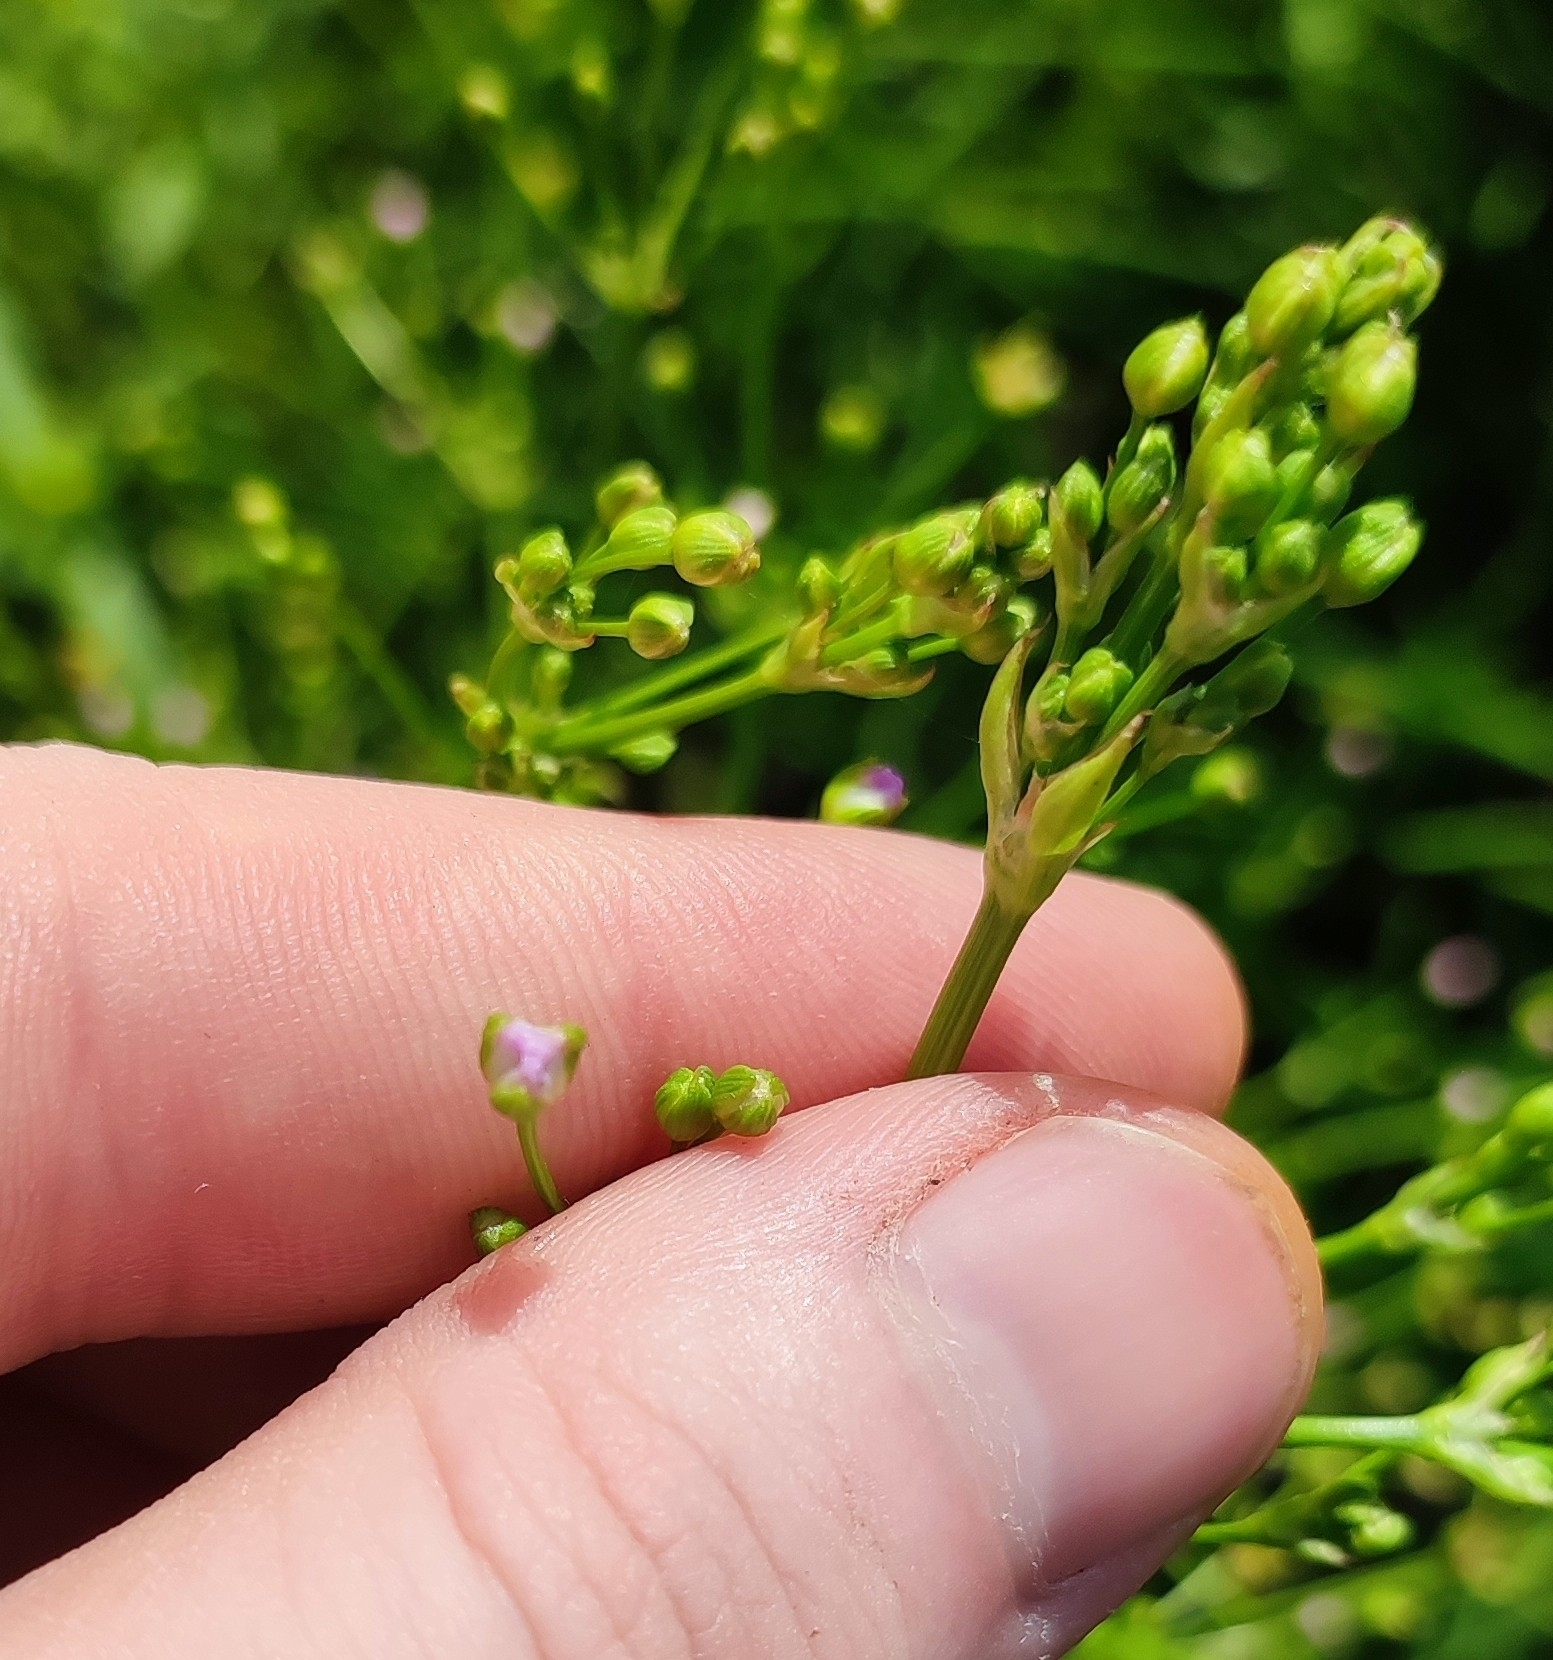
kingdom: Plantae
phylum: Tracheophyta
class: Liliopsida
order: Alismatales
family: Alismataceae
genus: Alisma
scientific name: Alisma plantago-aquatica
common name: Water-plantain
